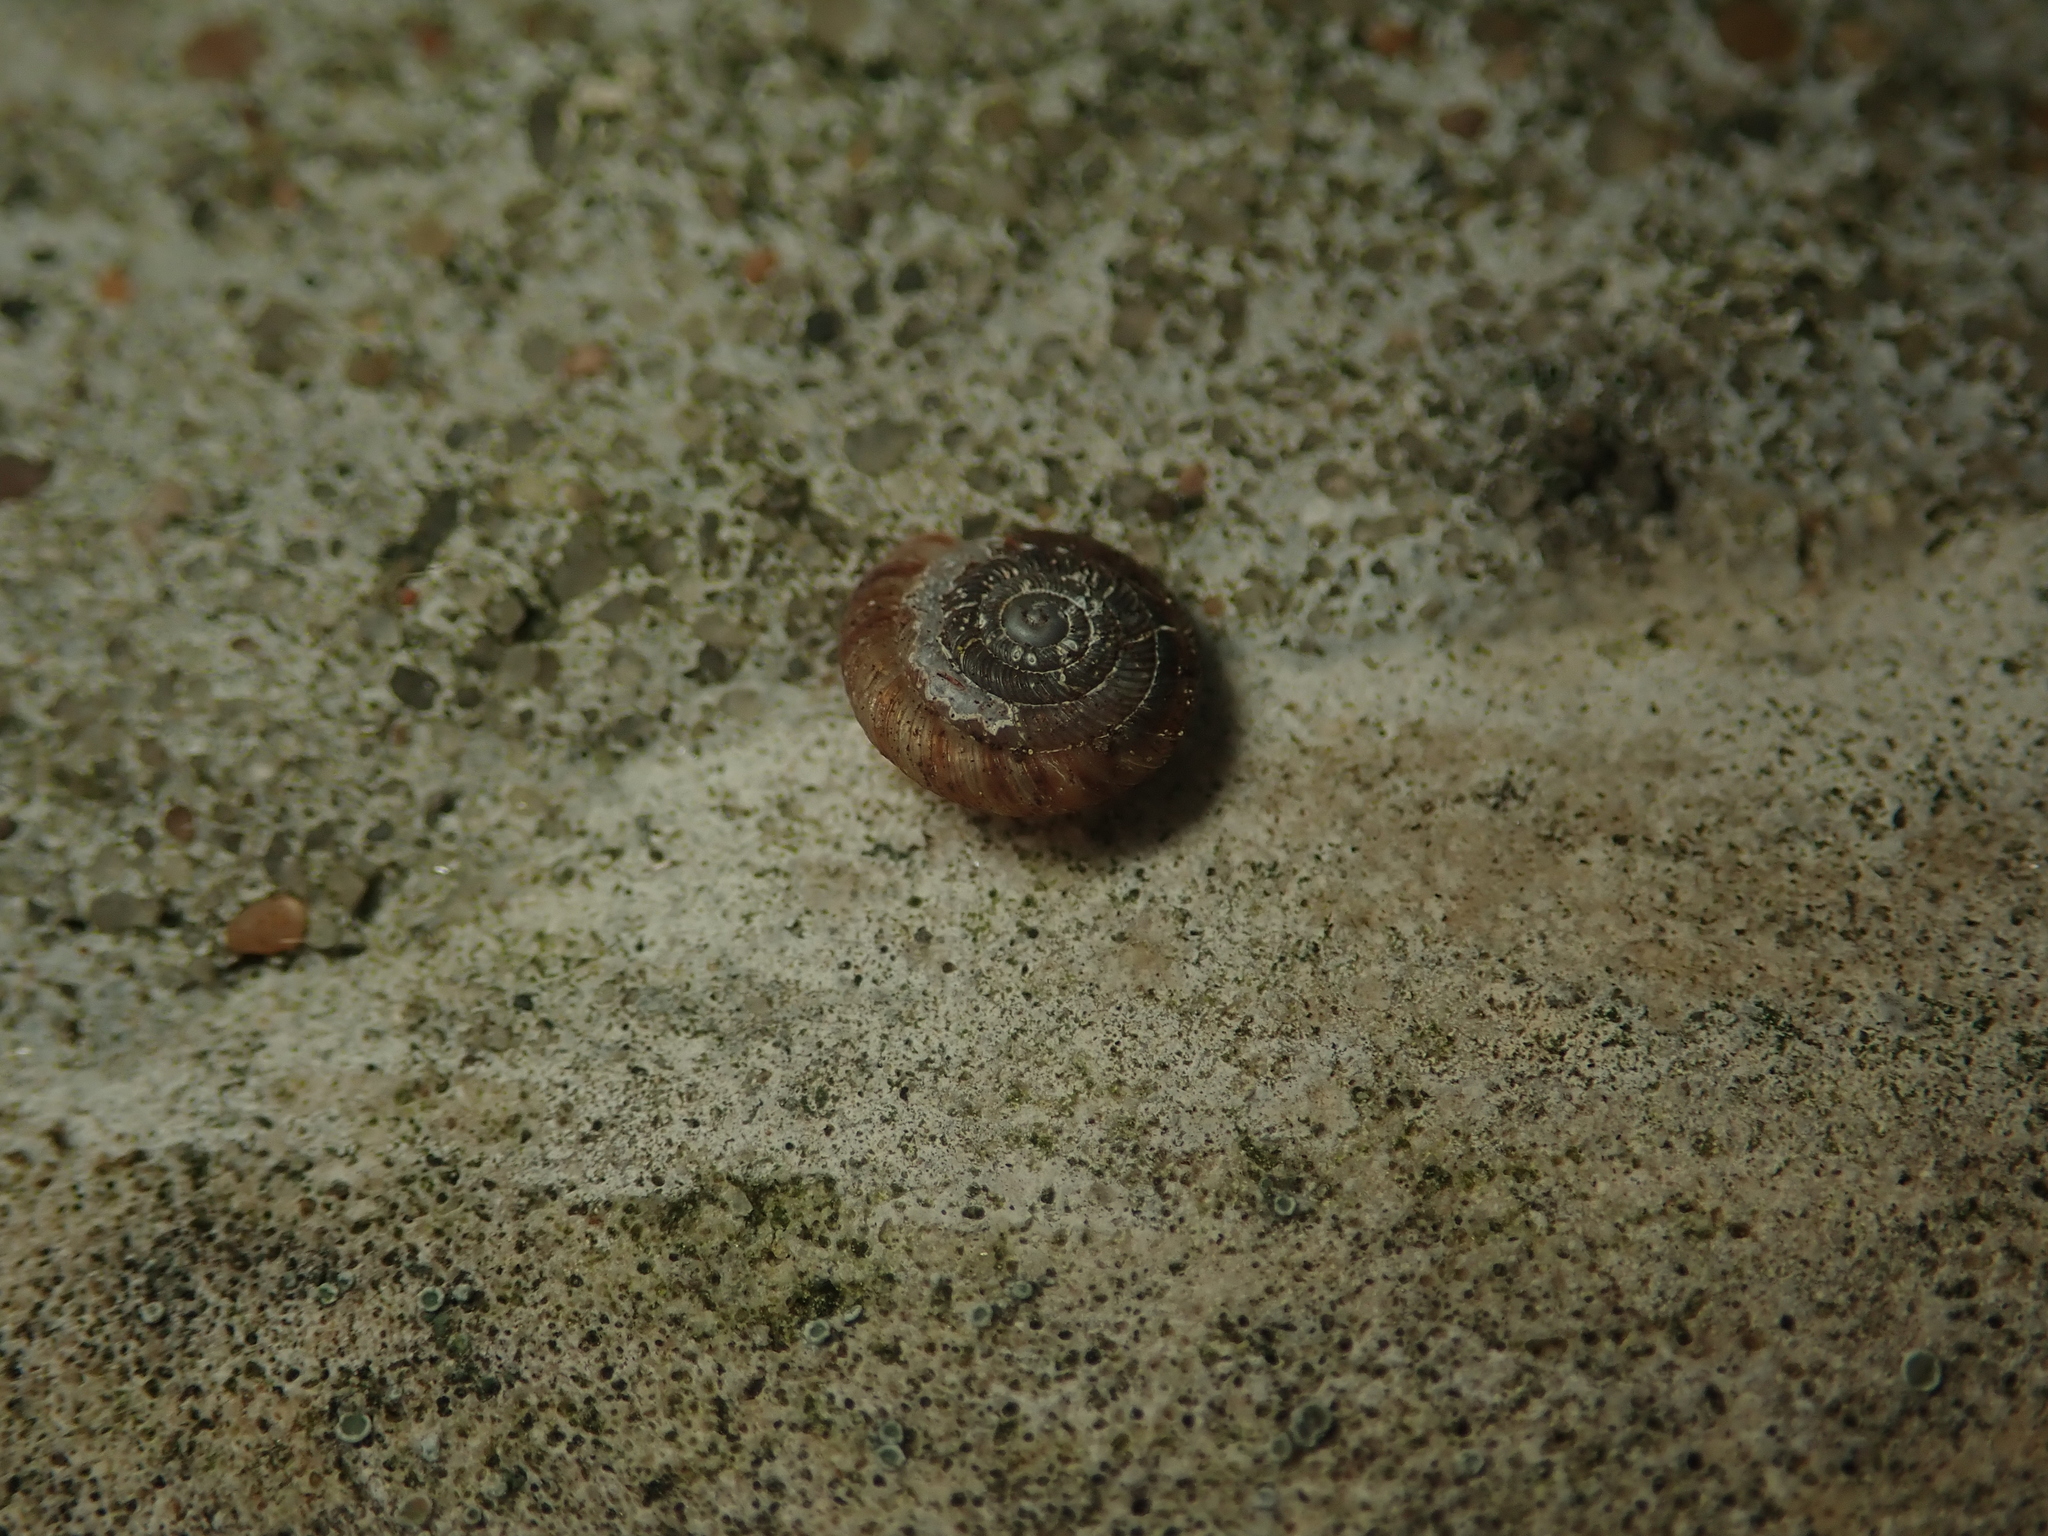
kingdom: Animalia
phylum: Mollusca
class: Gastropoda
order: Stylommatophora
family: Discidae
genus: Discus
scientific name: Discus rotundatus
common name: Rounded snail
